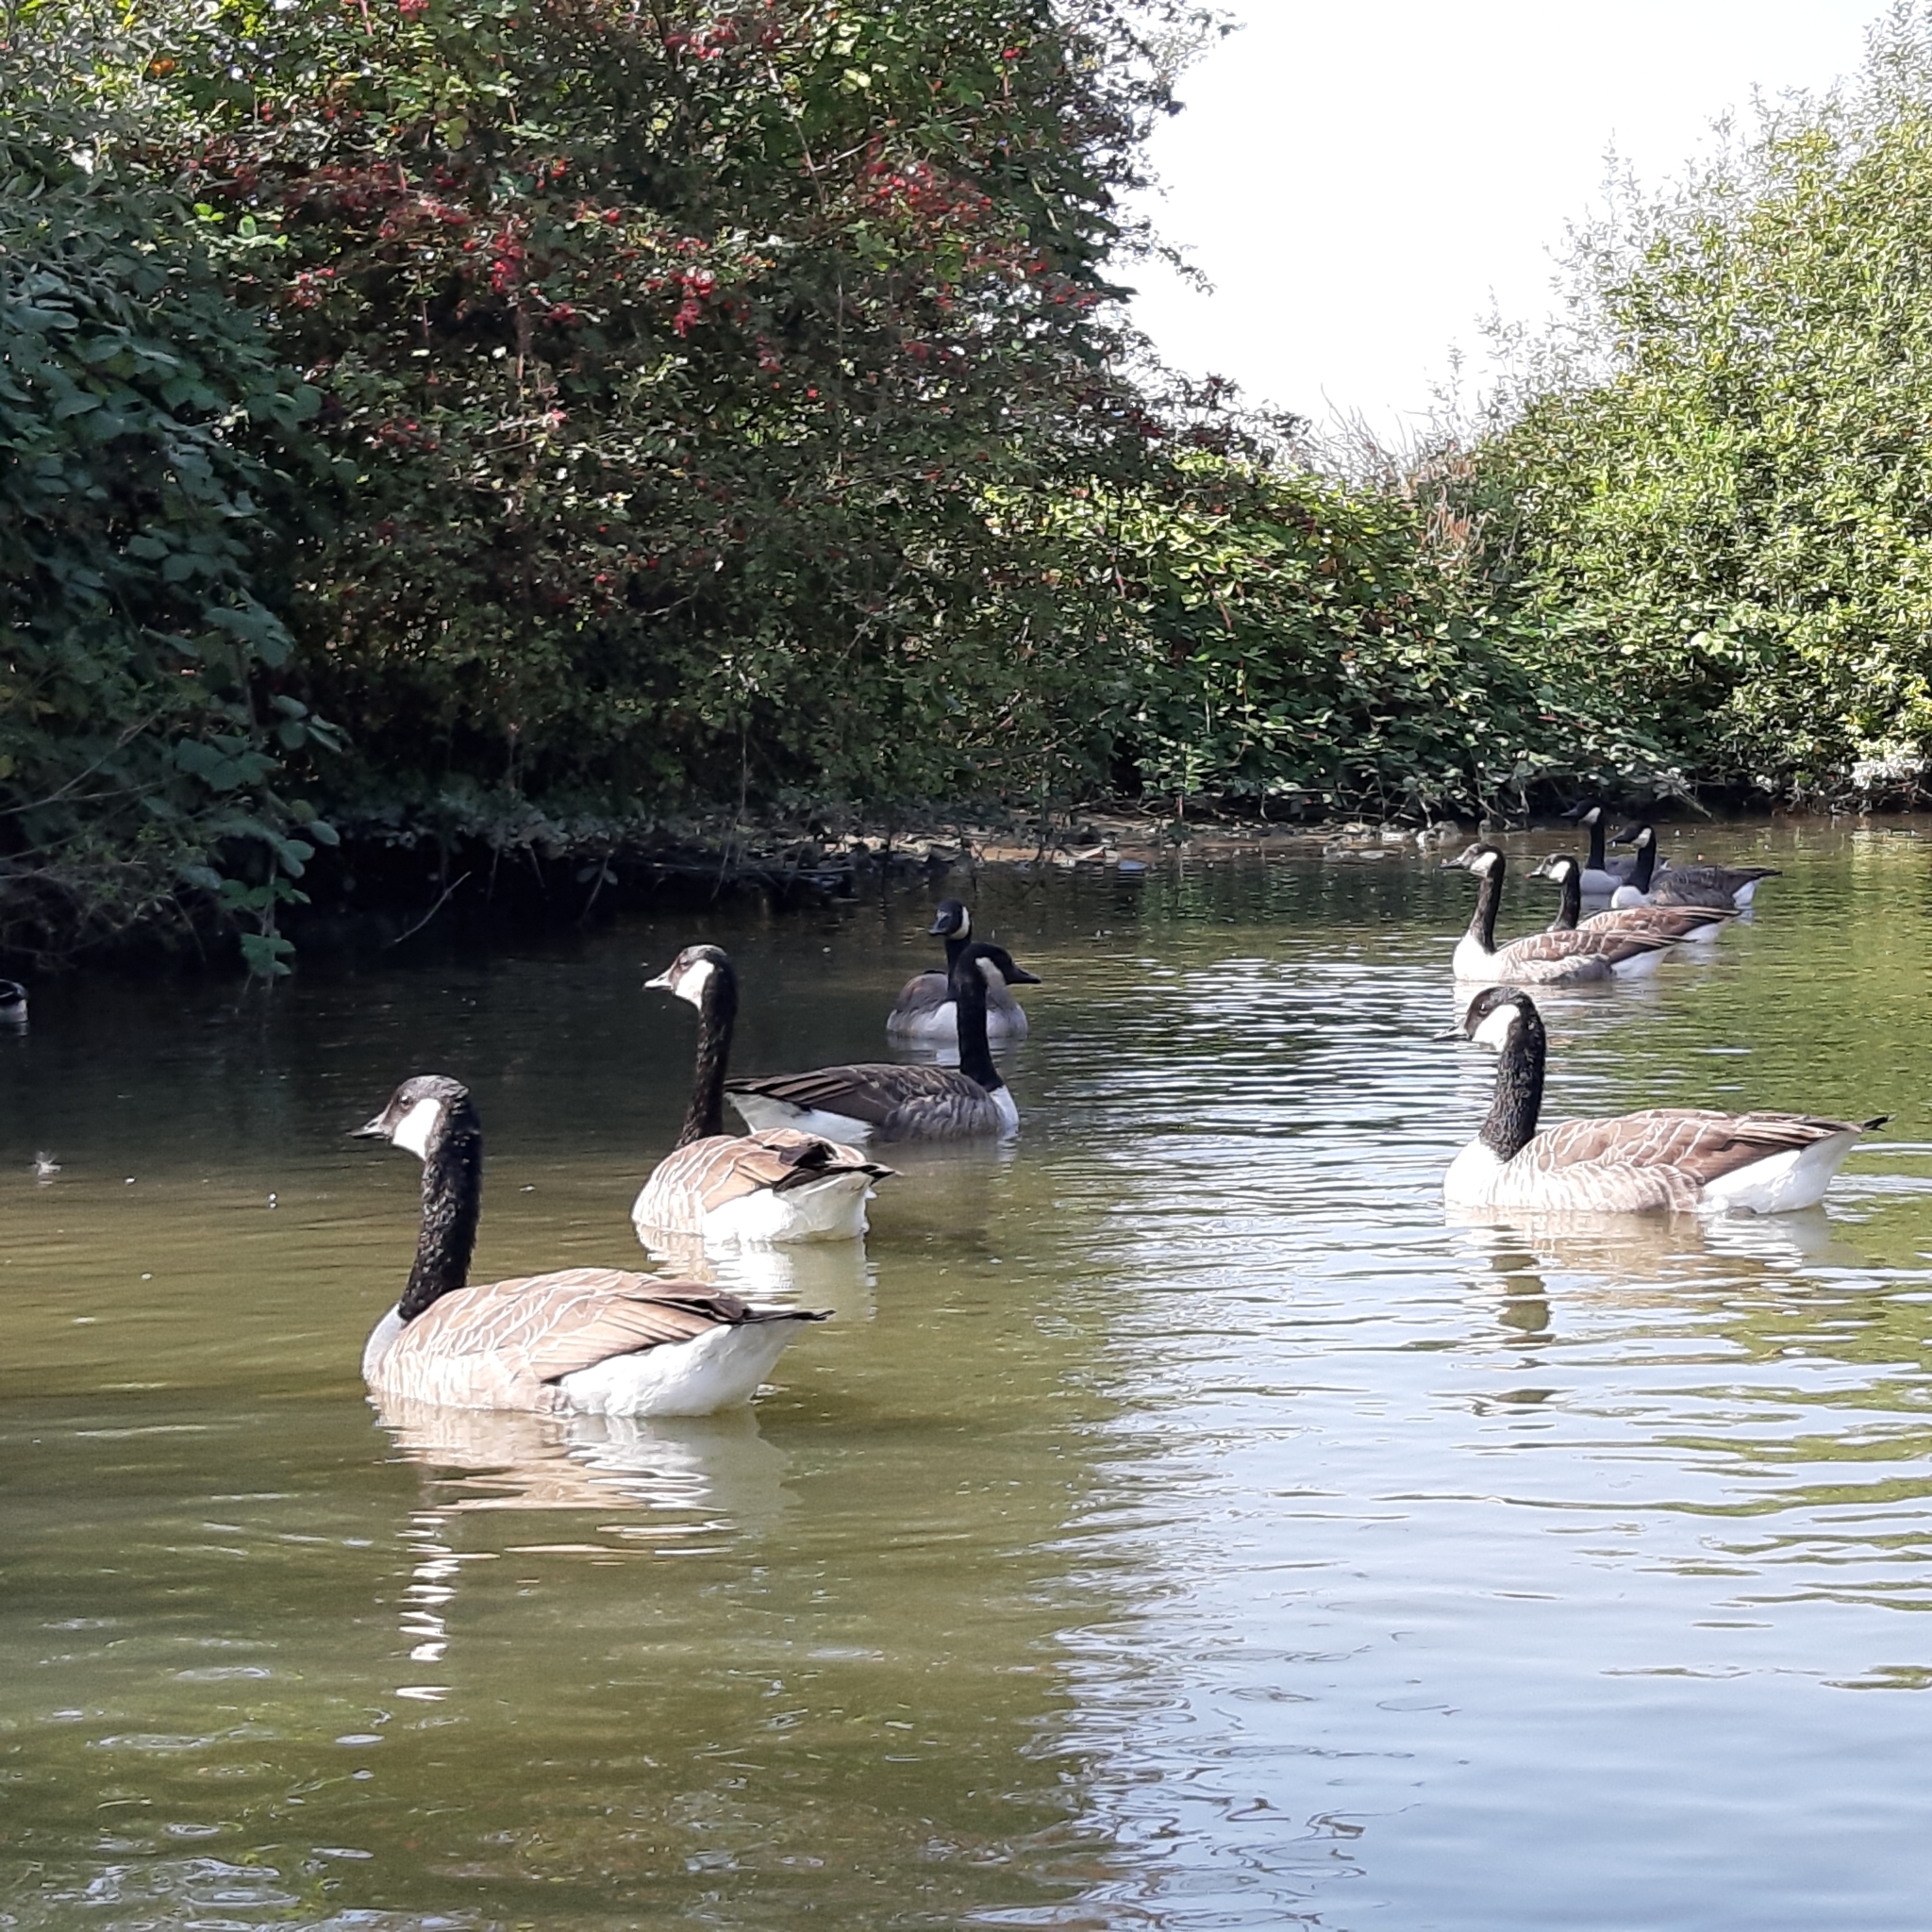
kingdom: Animalia
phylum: Chordata
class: Aves
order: Anseriformes
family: Anatidae
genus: Branta
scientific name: Branta canadensis
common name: Canada goose
